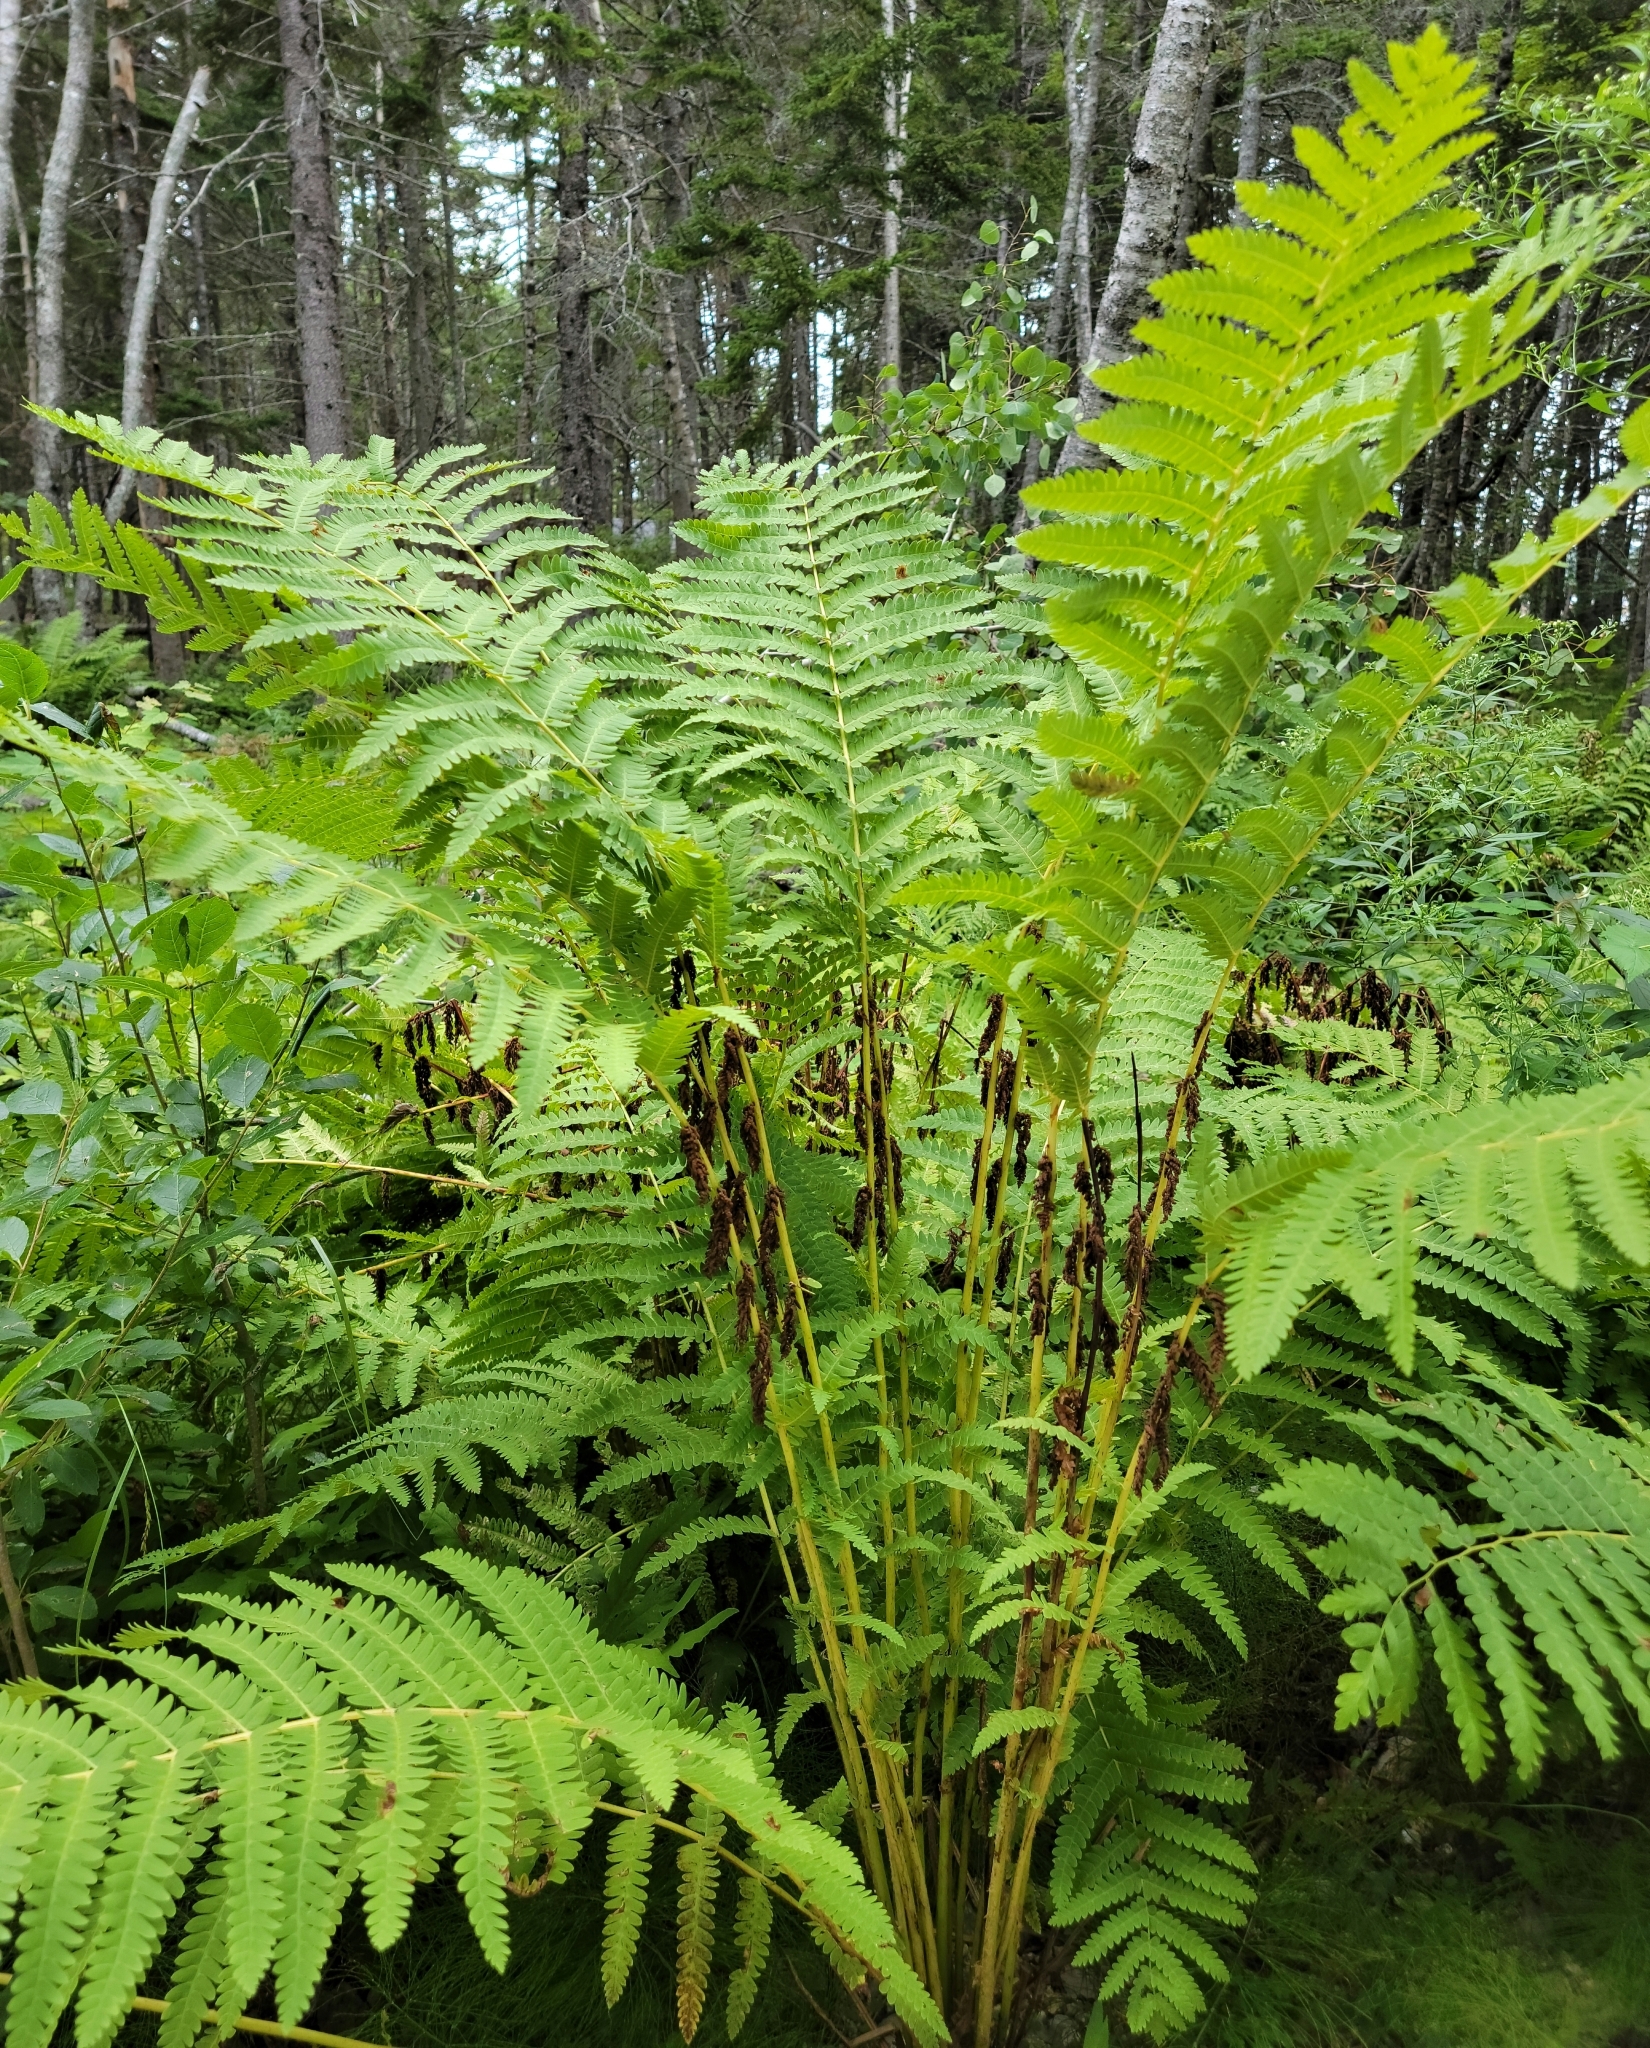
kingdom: Plantae
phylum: Tracheophyta
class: Polypodiopsida
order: Osmundales
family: Osmundaceae
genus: Claytosmunda
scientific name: Claytosmunda claytoniana
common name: Clayton's fern
